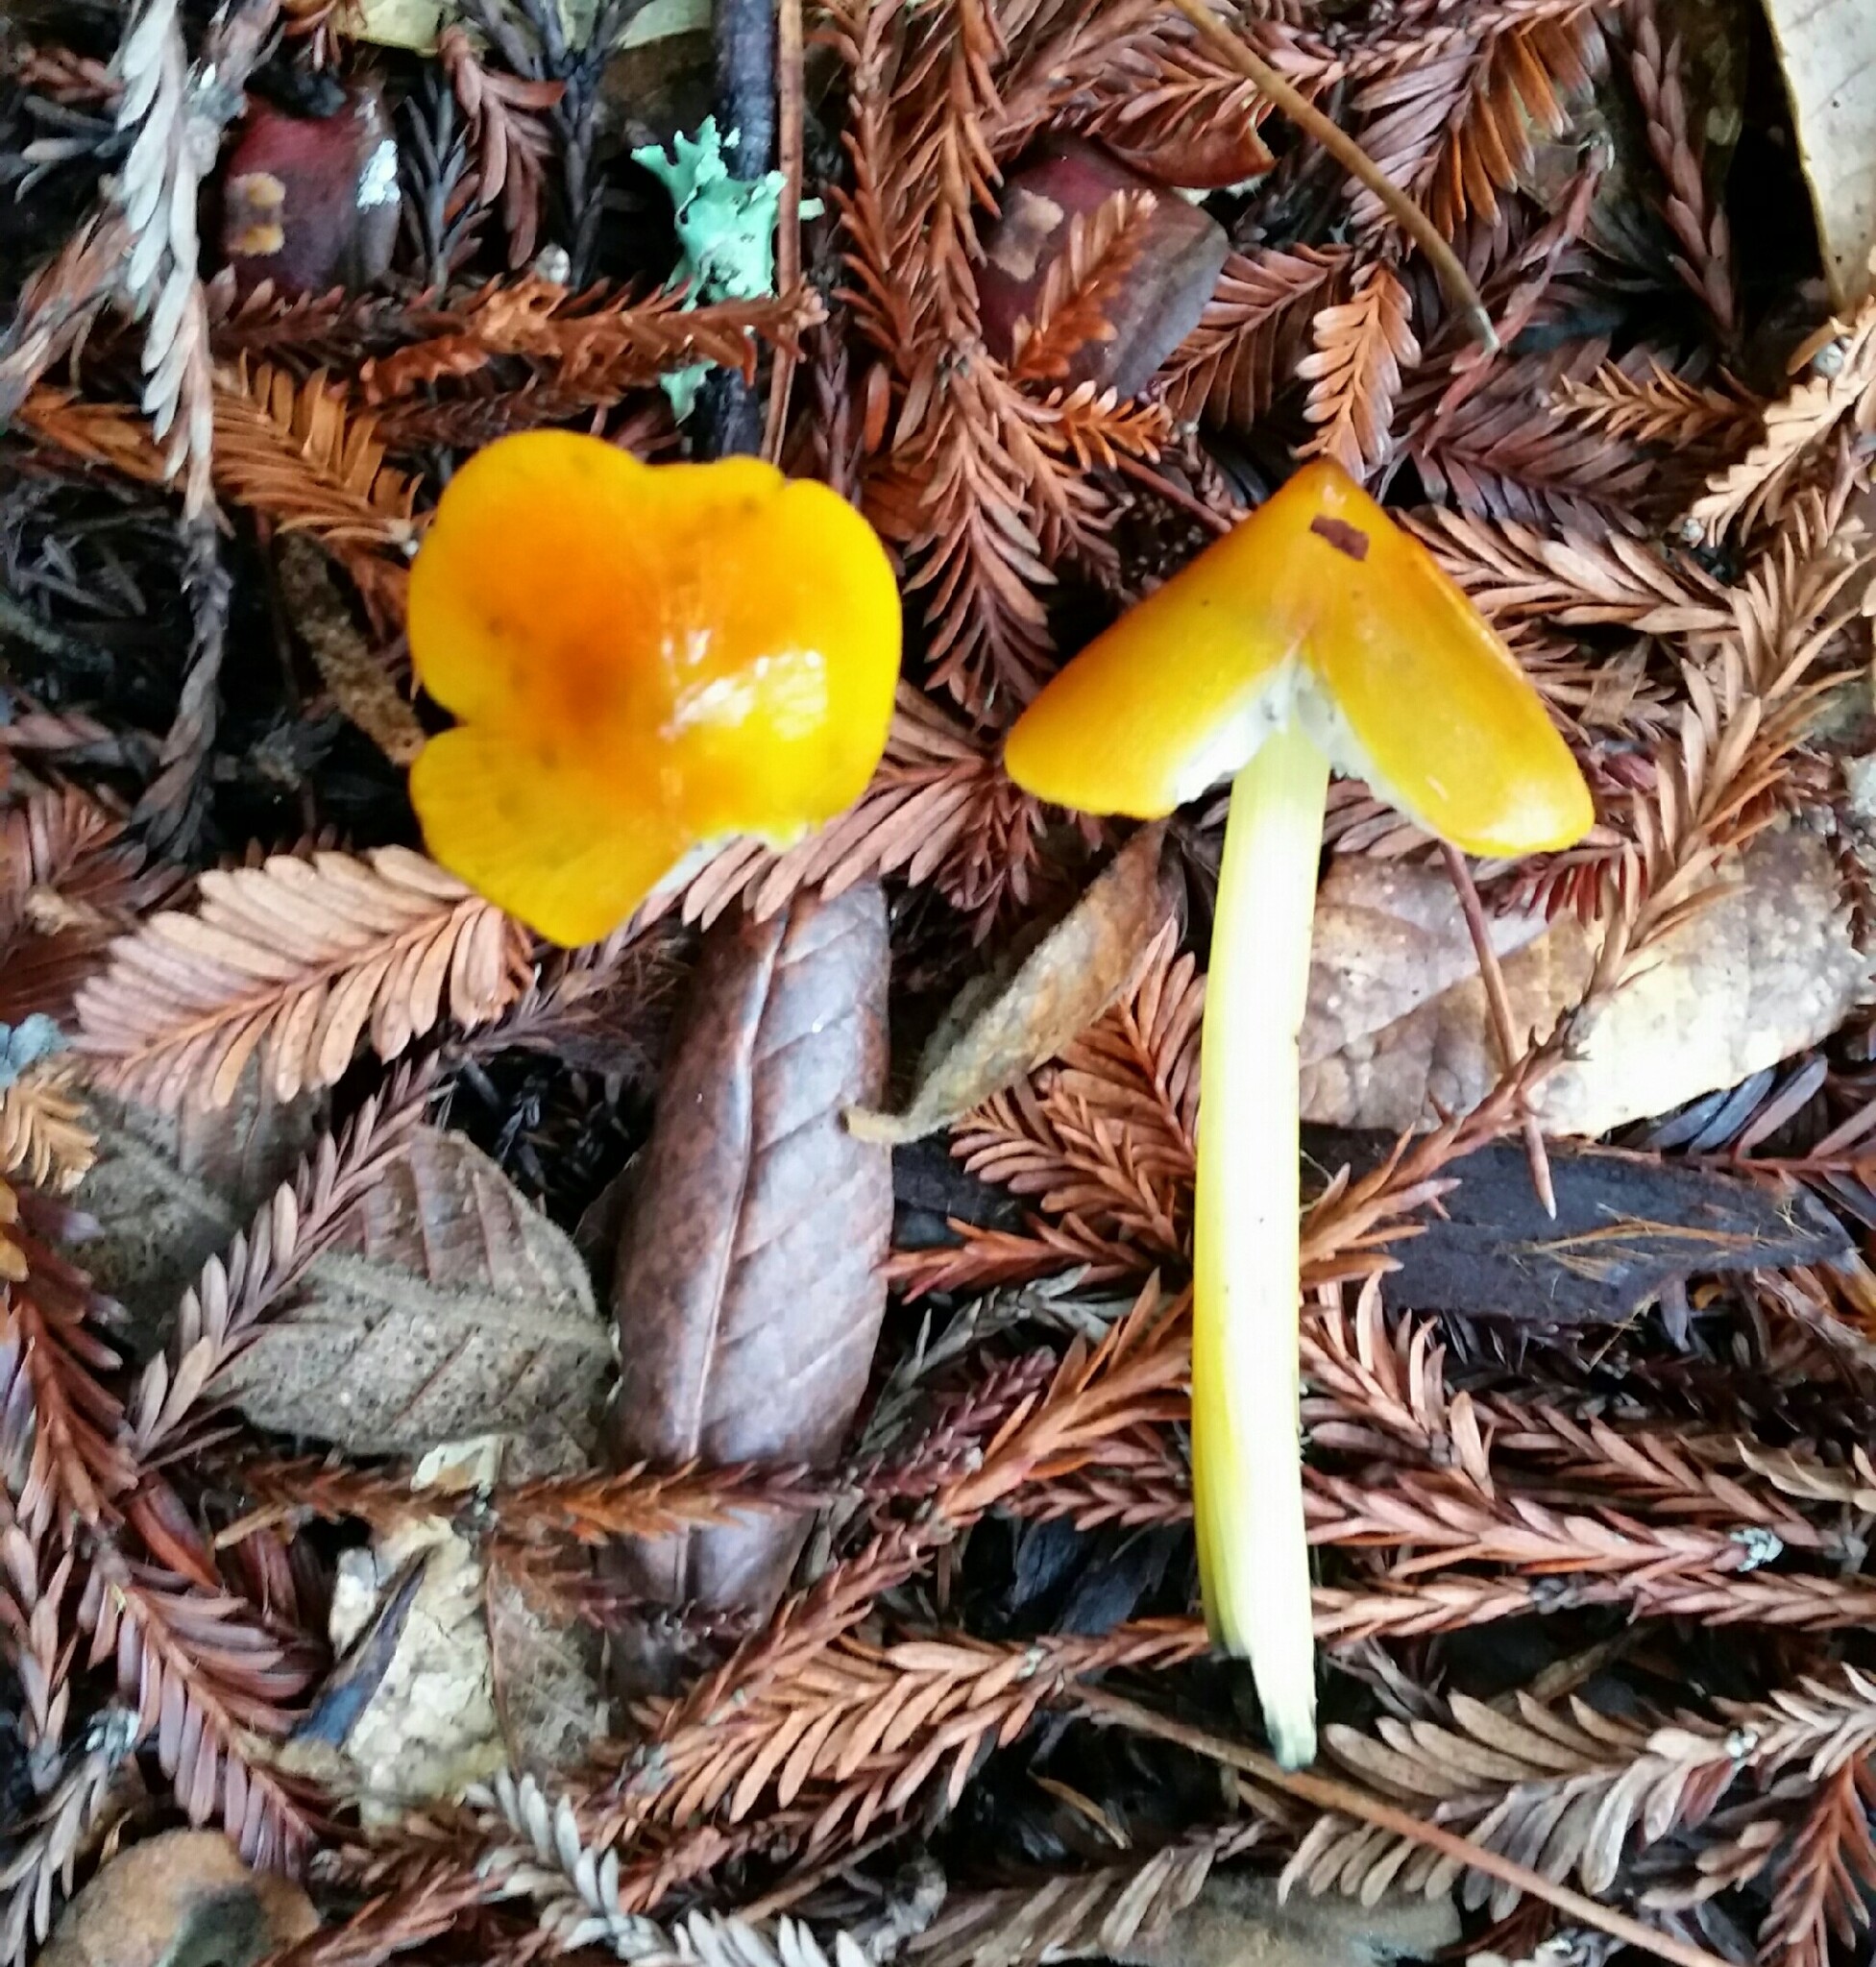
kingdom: Fungi
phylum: Basidiomycota
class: Agaricomycetes
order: Agaricales
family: Hygrophoraceae
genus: Hygrocybe
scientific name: Hygrocybe singeri
